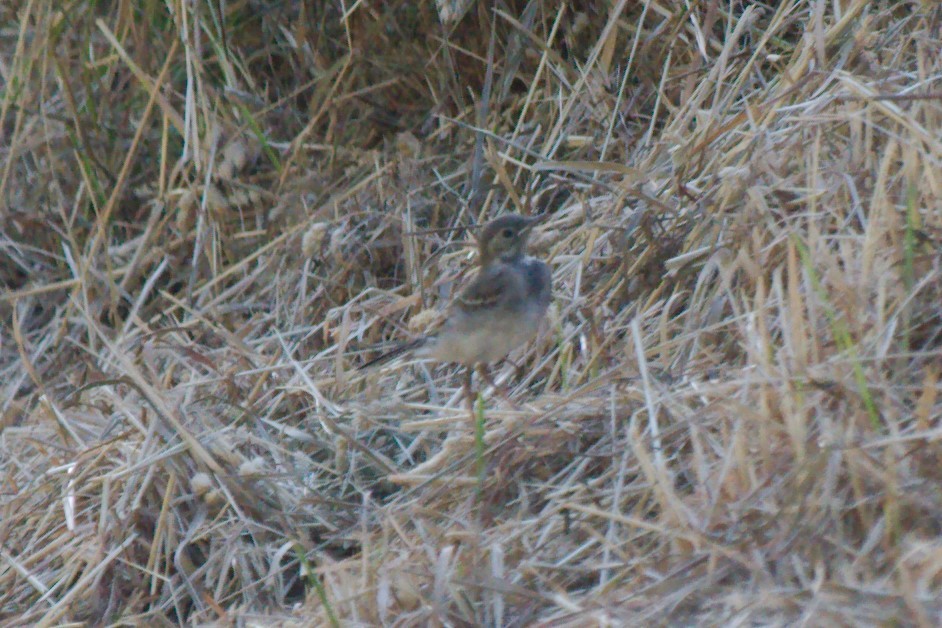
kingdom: Animalia
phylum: Chordata
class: Aves
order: Passeriformes
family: Motacillidae
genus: Motacilla
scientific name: Motacilla alba
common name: White wagtail
